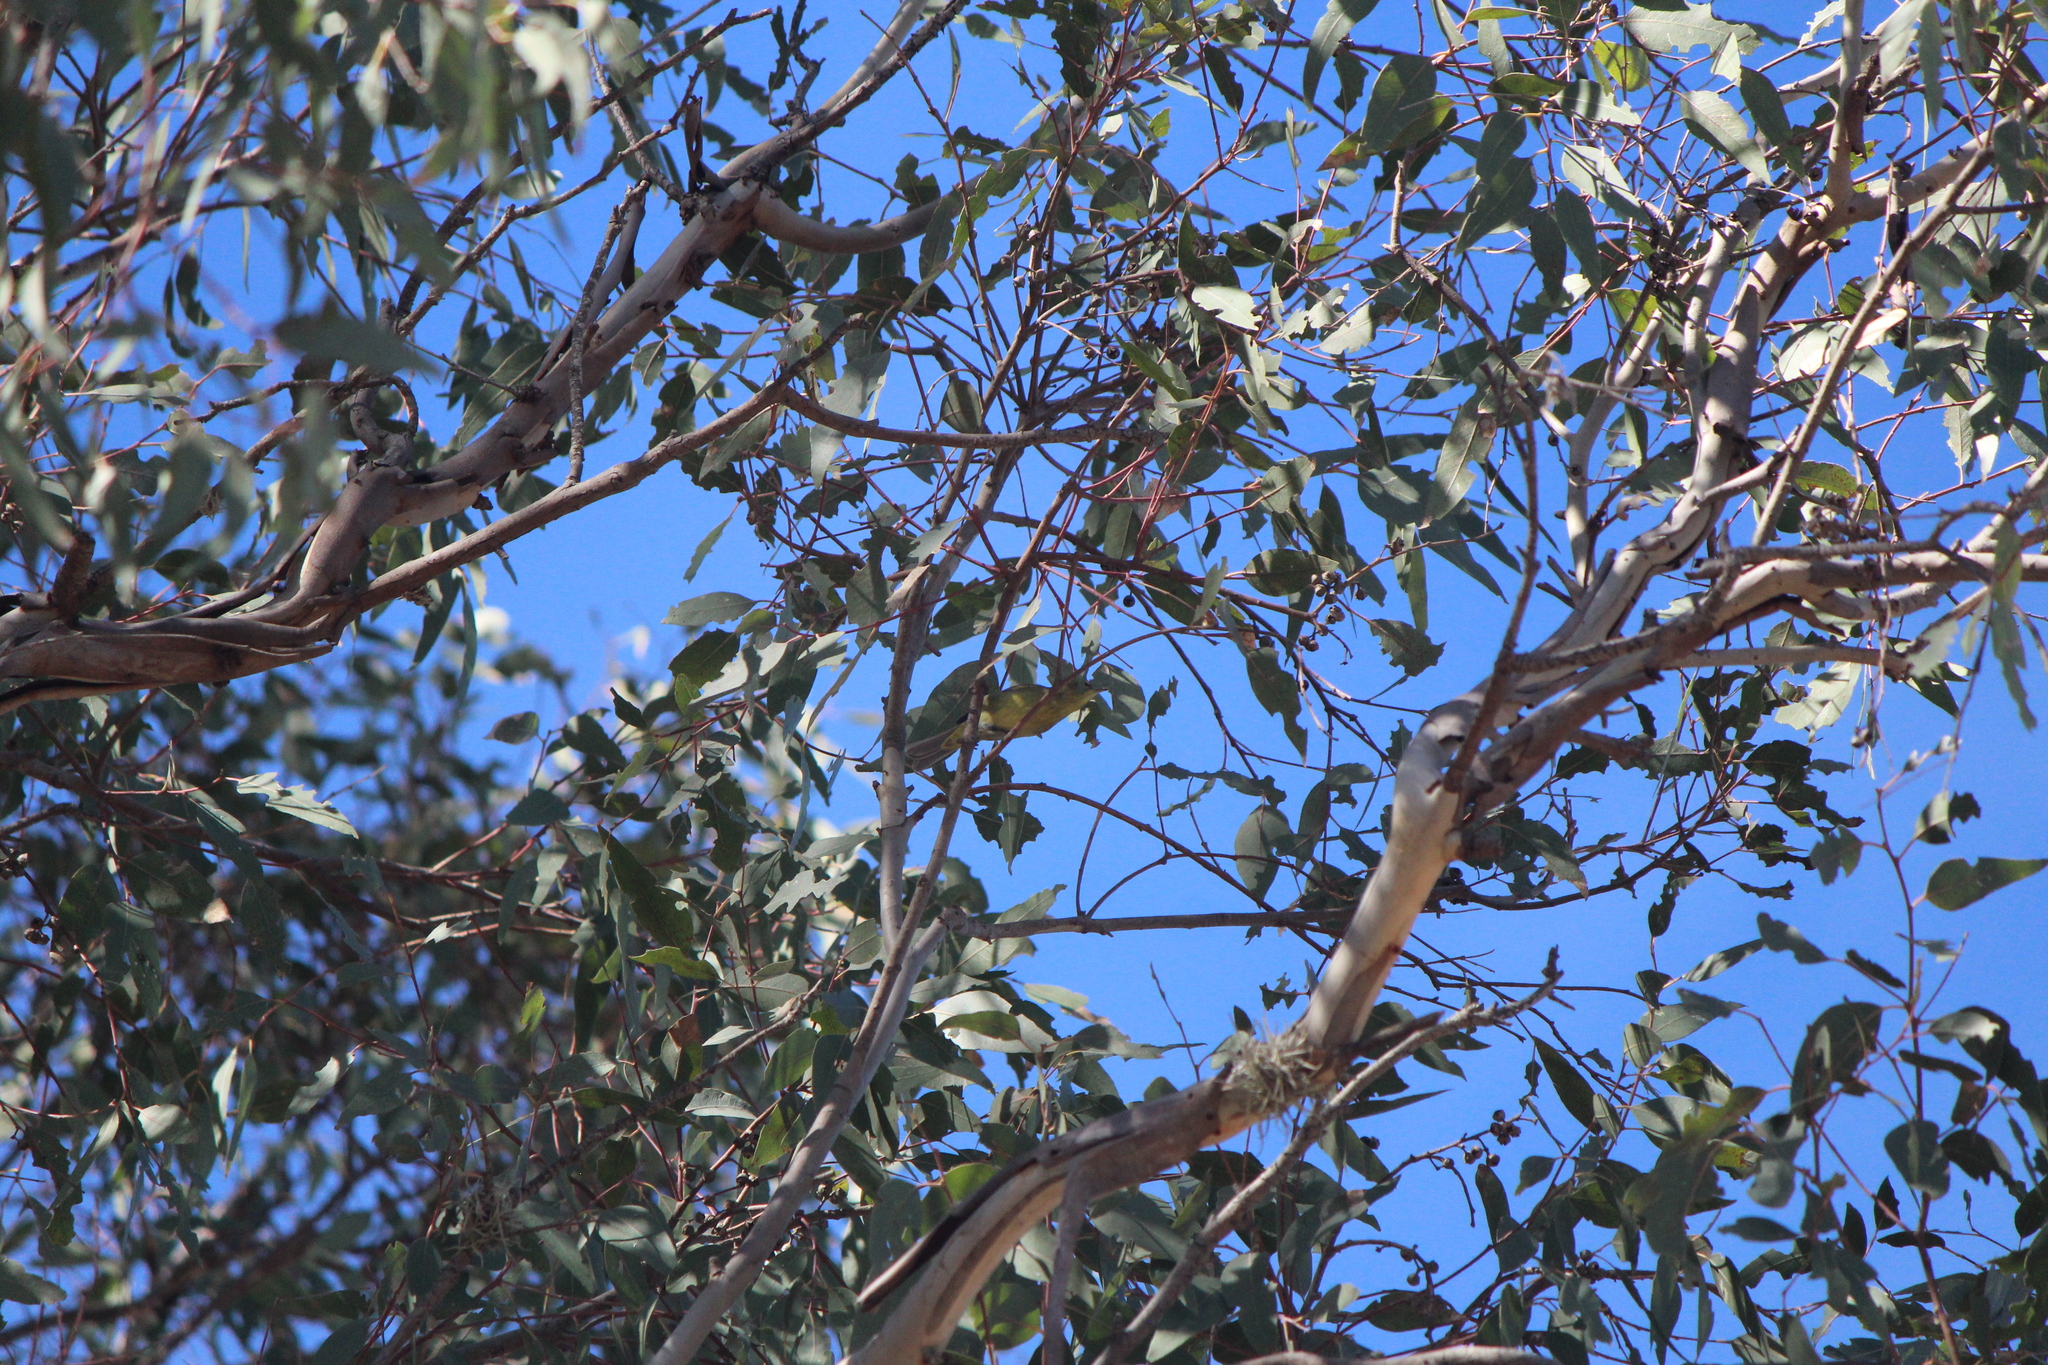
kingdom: Animalia
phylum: Chordata
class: Aves
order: Passeriformes
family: Parulidae
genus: Leiothlypis
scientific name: Leiothlypis celata
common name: Orange-crowned warbler
